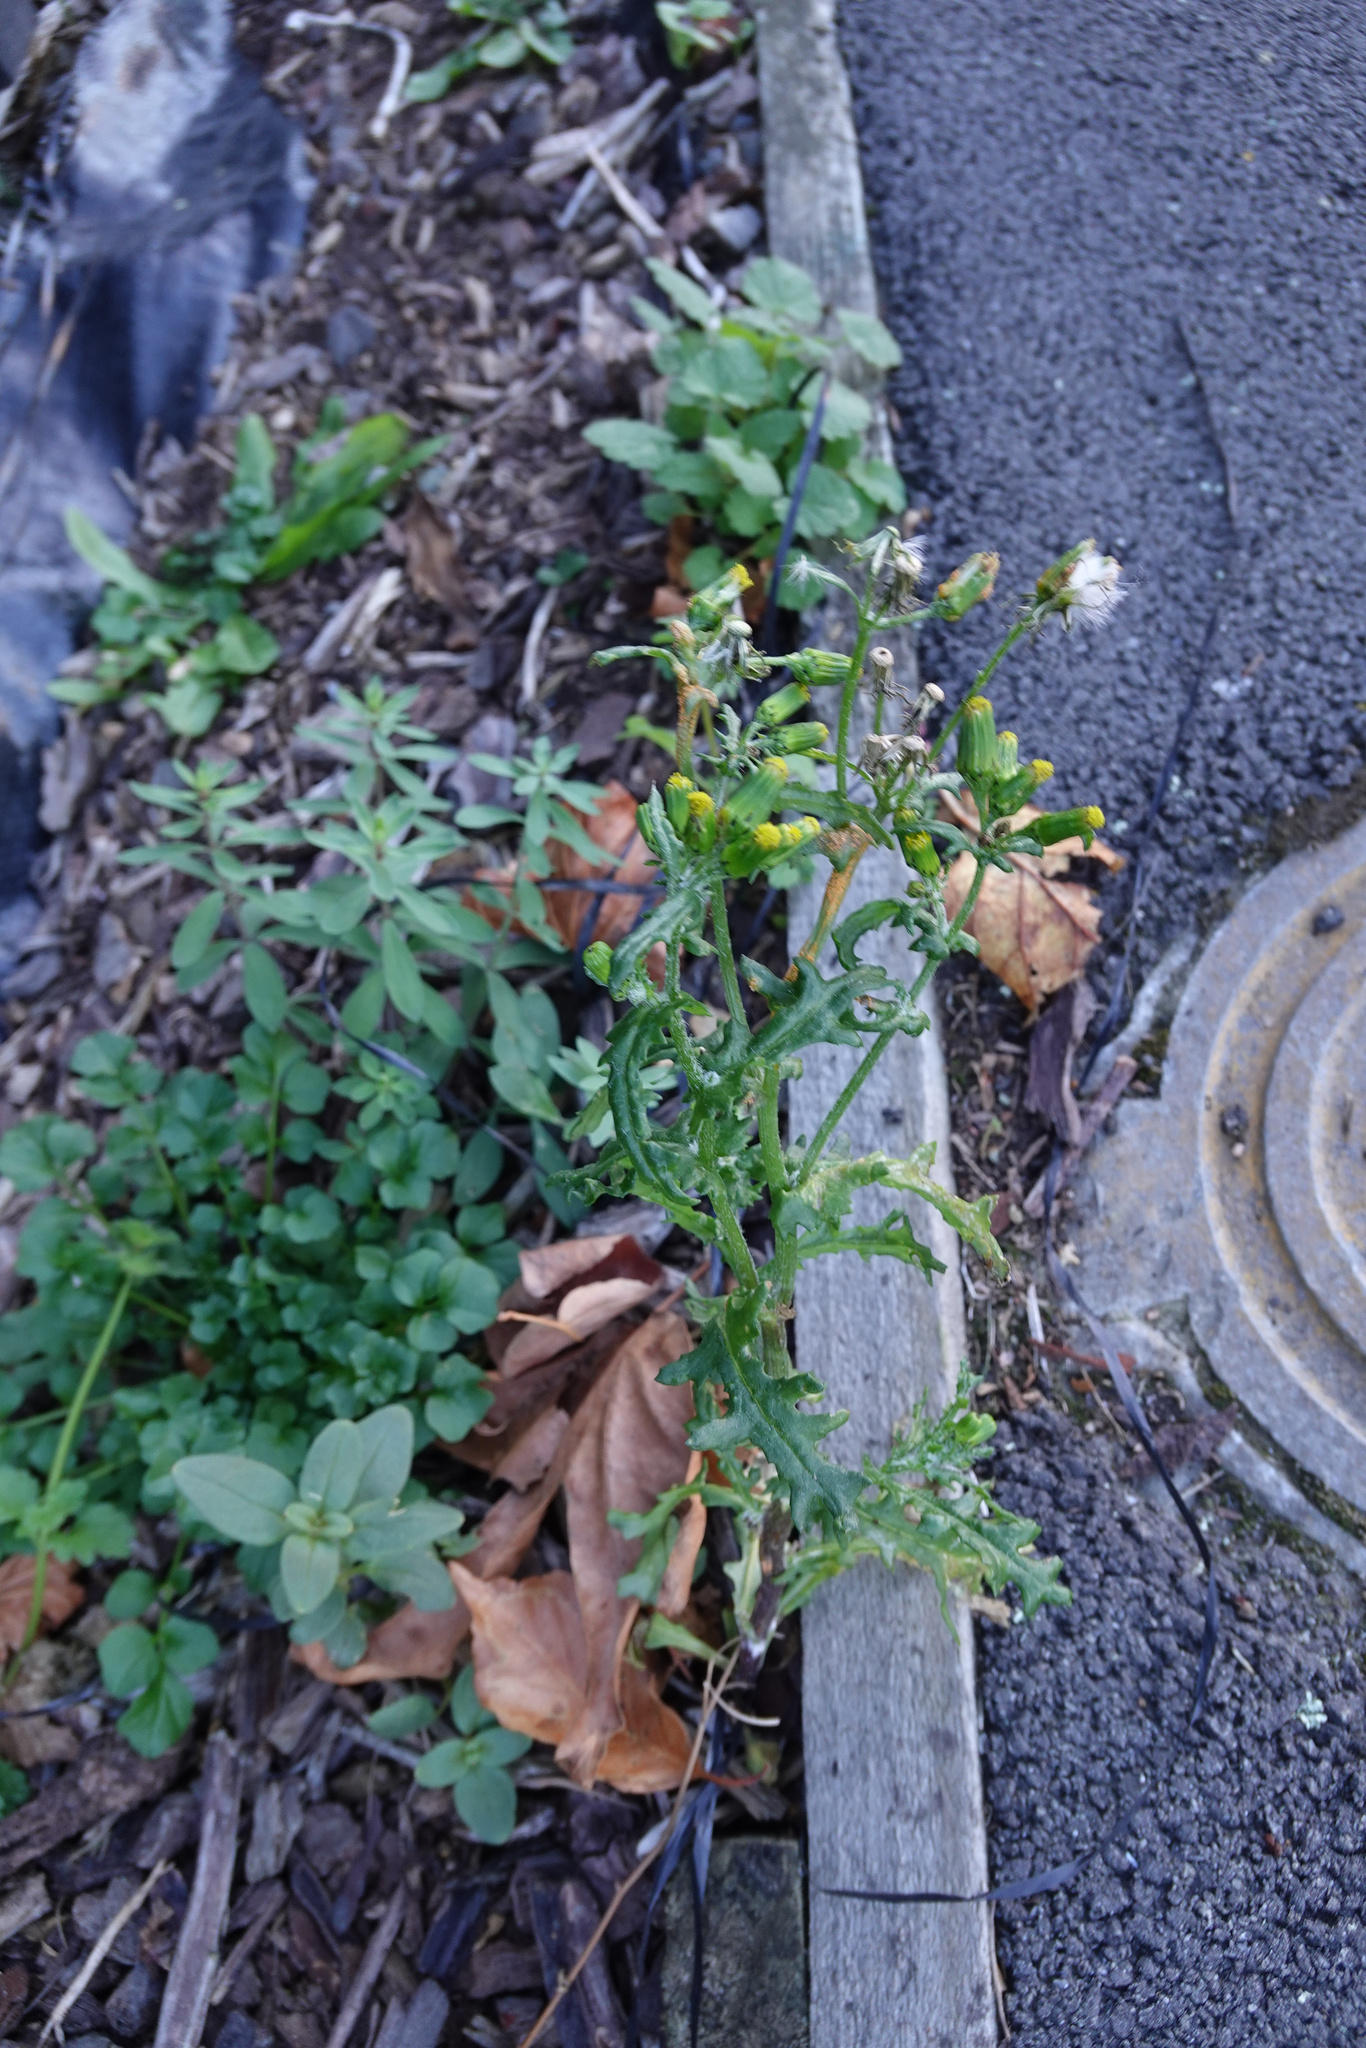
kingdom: Plantae
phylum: Tracheophyta
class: Magnoliopsida
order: Asterales
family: Asteraceae
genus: Senecio
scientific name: Senecio vulgaris
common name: Old-man-in-the-spring
